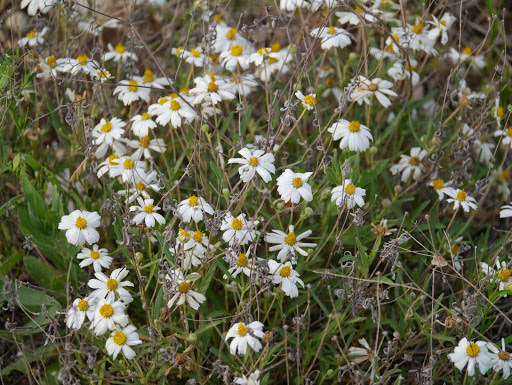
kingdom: Plantae
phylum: Tracheophyta
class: Magnoliopsida
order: Asterales
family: Asteraceae
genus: Melampodium
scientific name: Melampodium leucanthum
